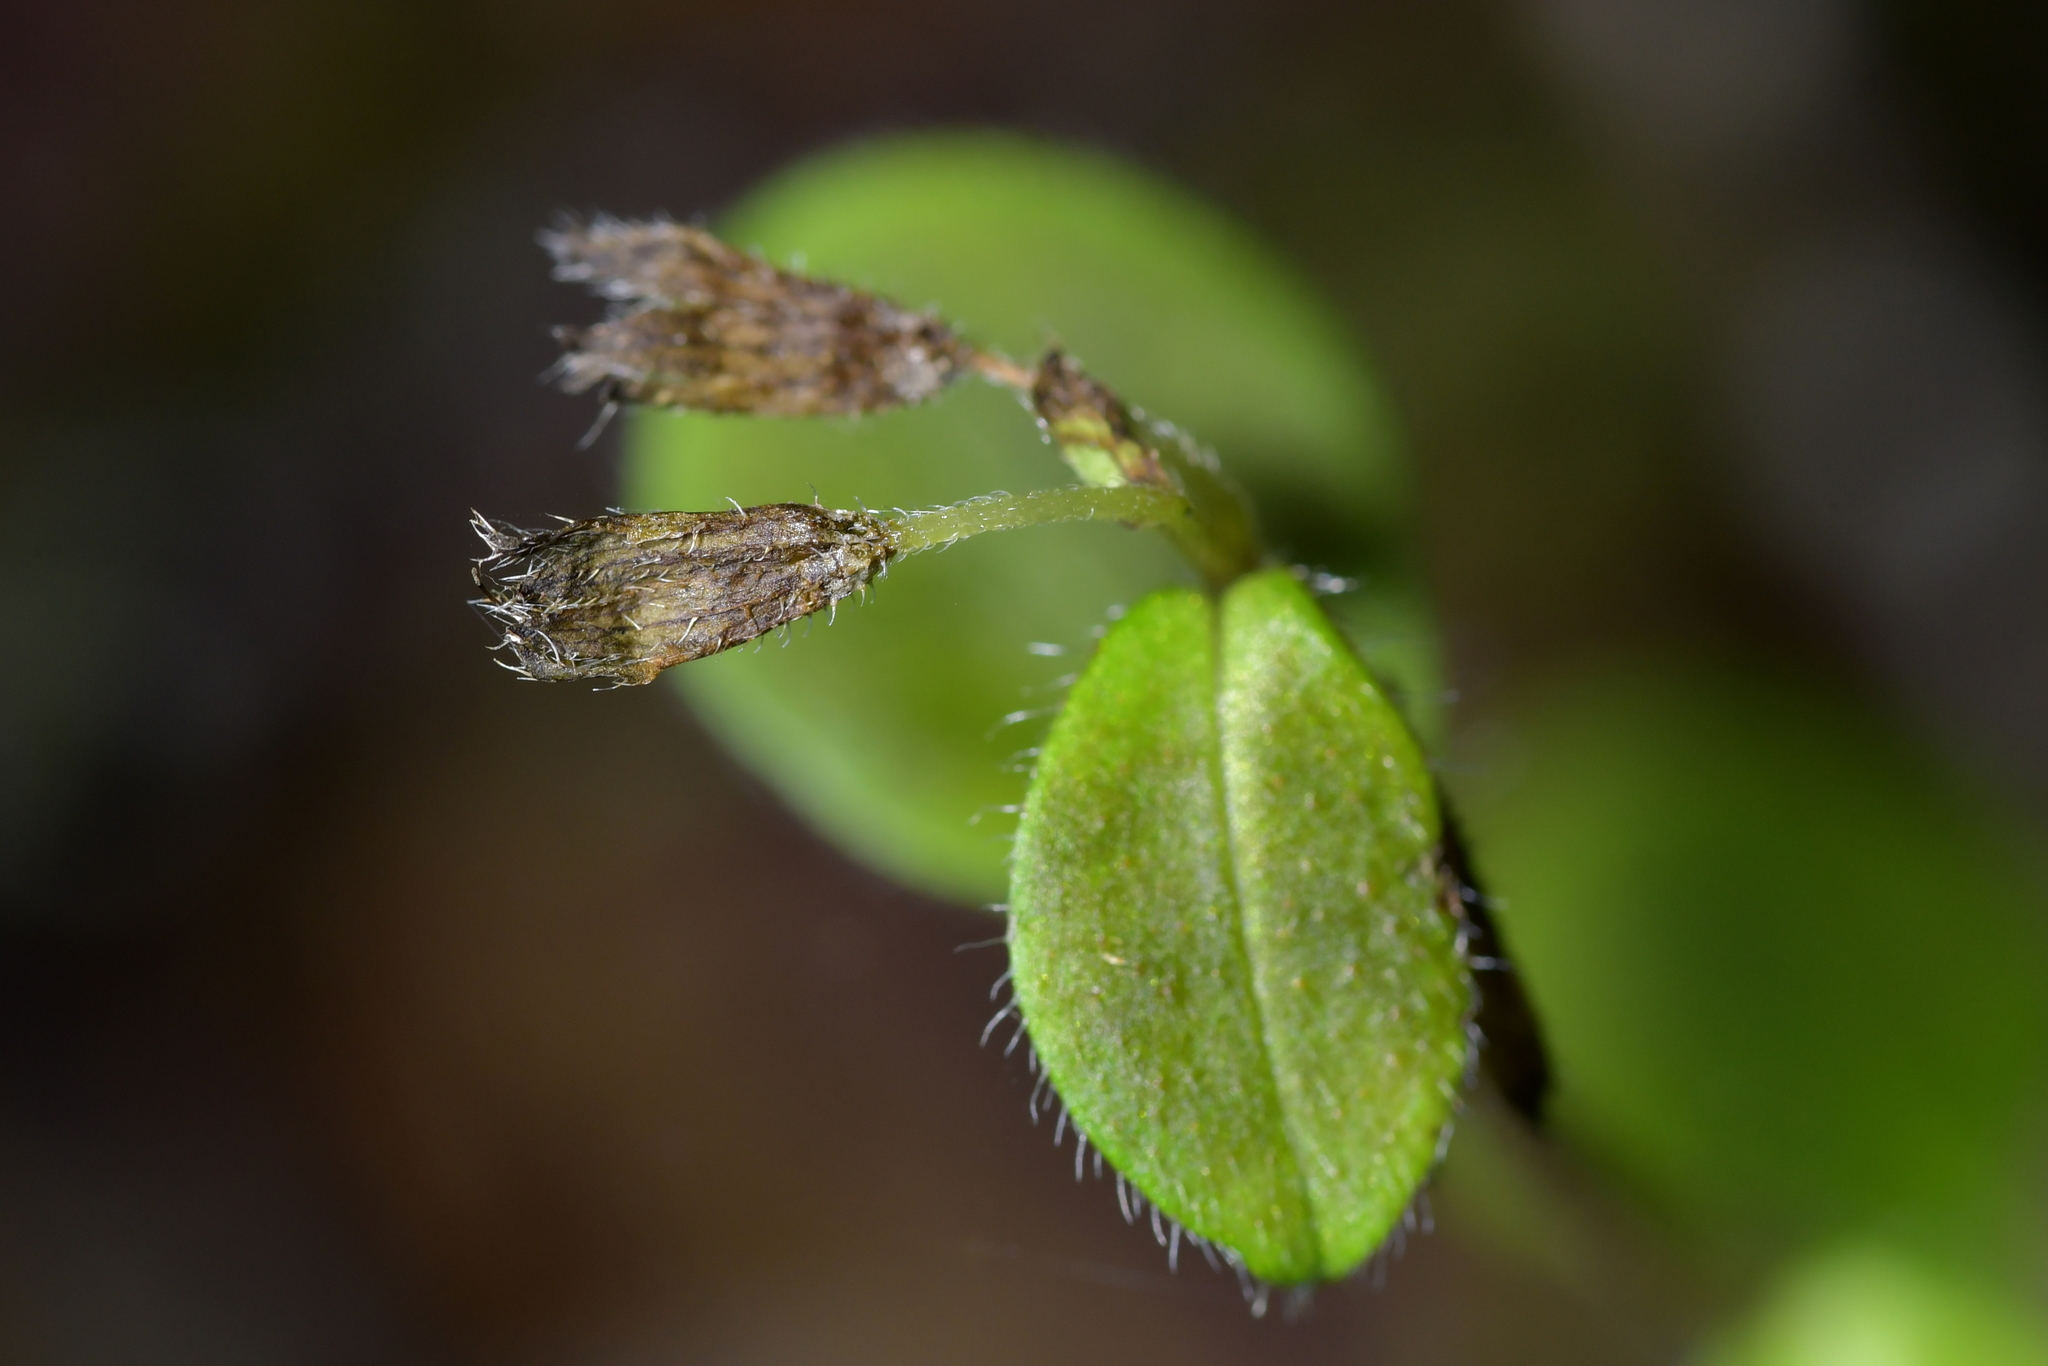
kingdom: Plantae
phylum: Tracheophyta
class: Magnoliopsida
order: Boraginales
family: Boraginaceae
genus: Myosotis
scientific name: Myosotis forsteri
